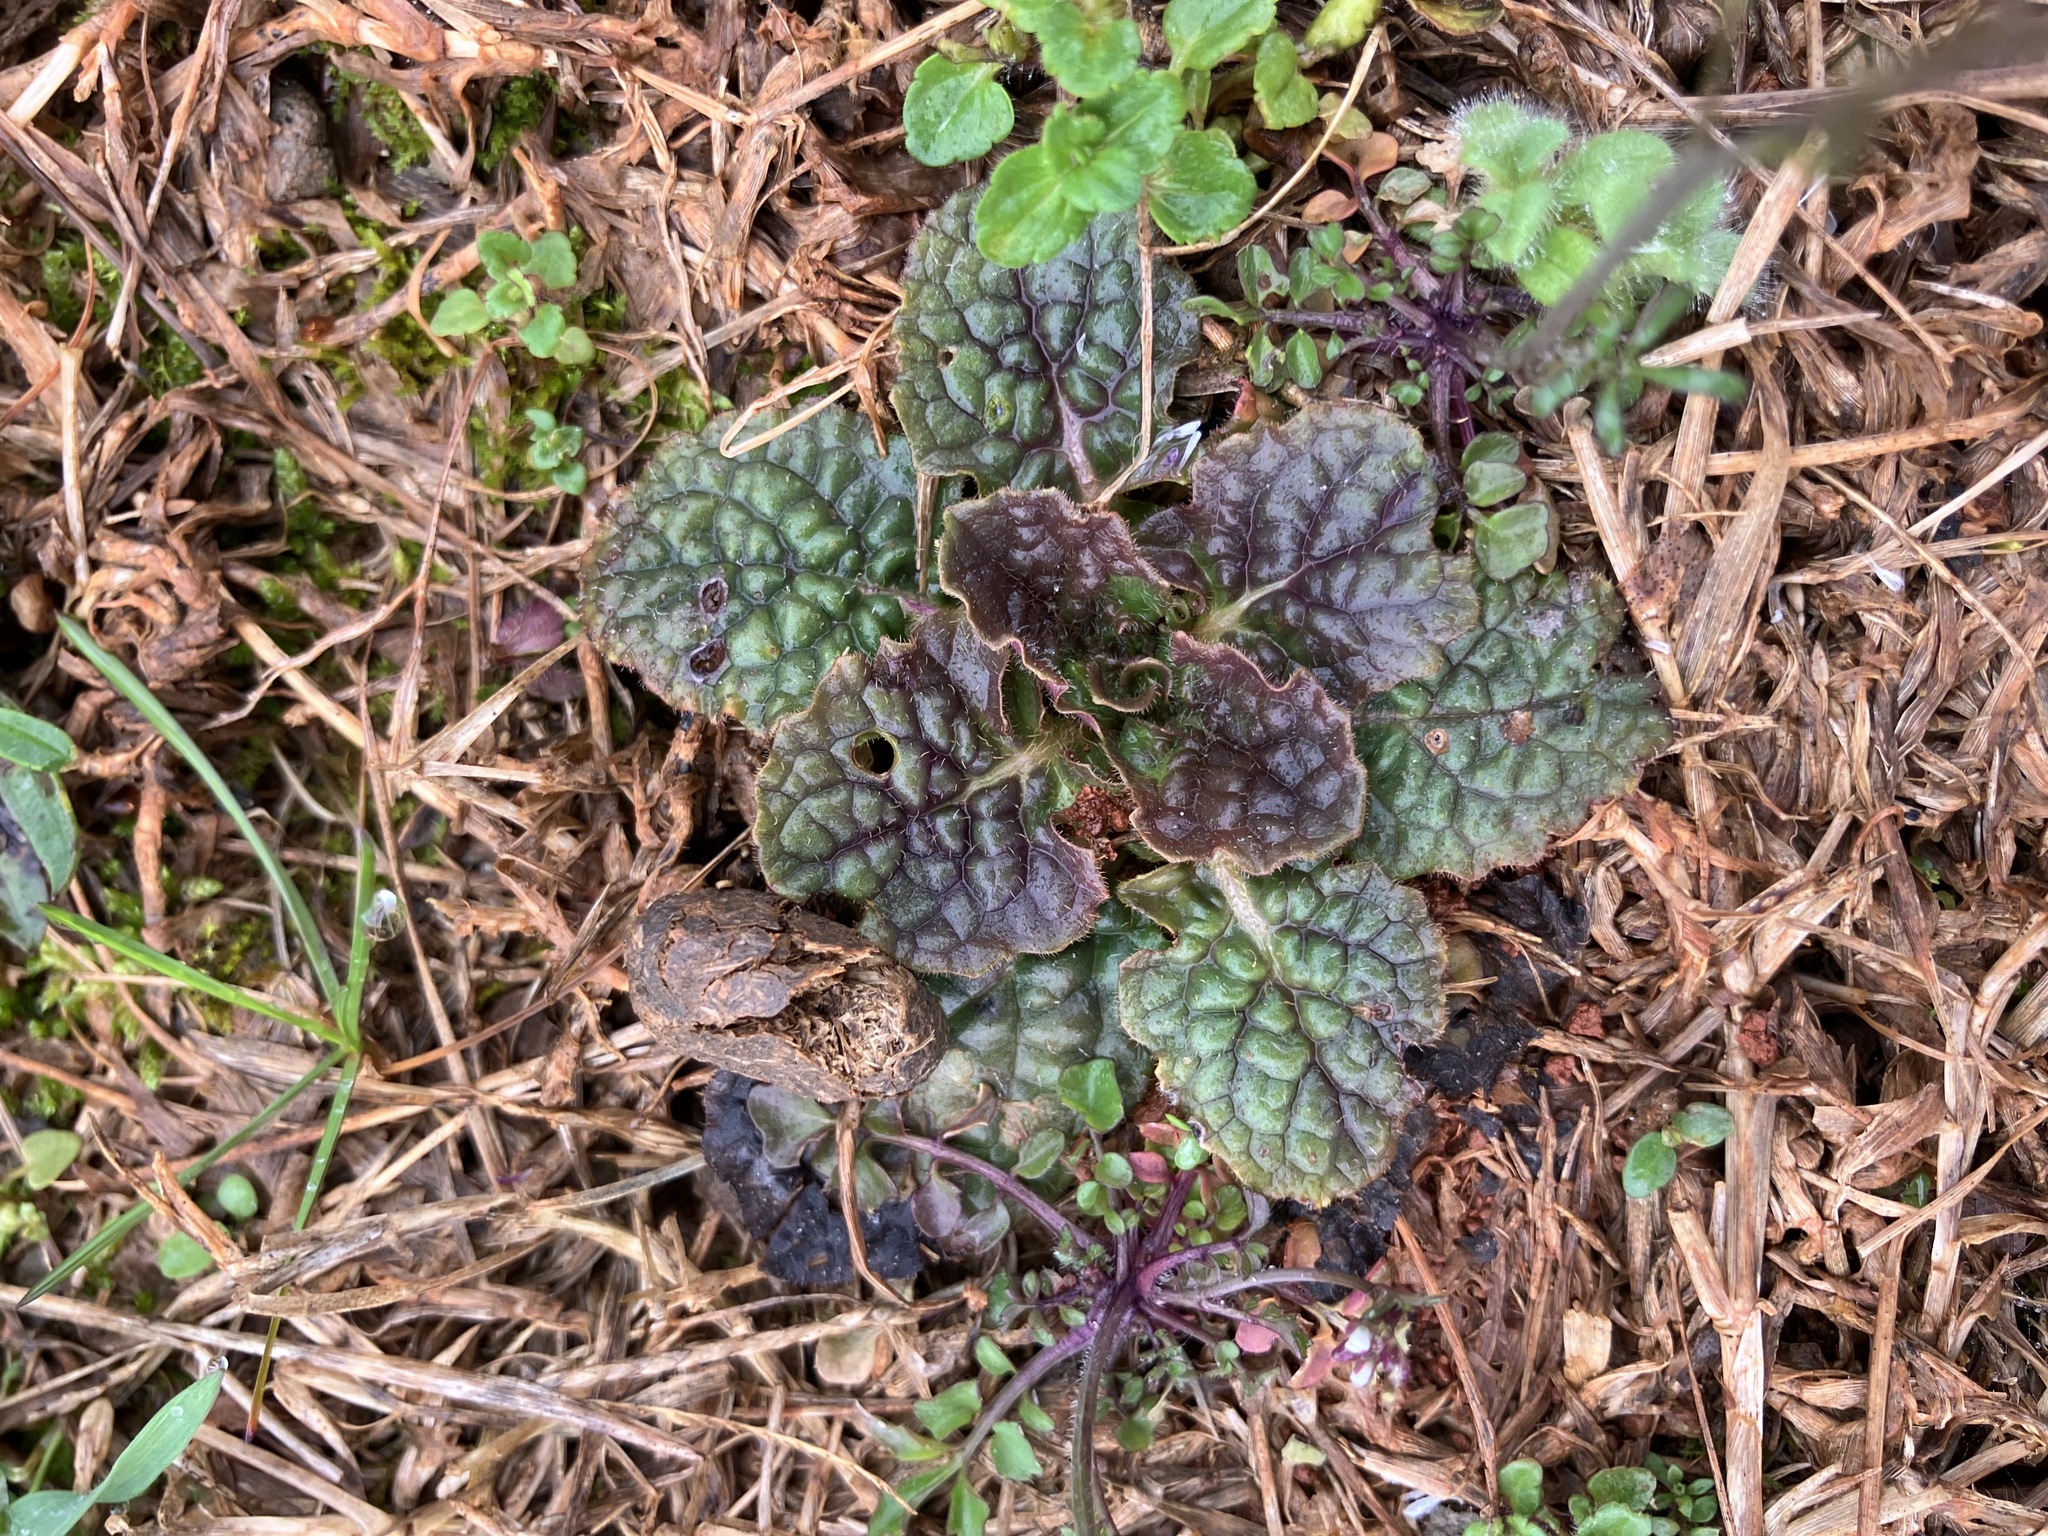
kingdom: Plantae
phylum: Tracheophyta
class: Magnoliopsida
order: Lamiales
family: Lamiaceae
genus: Salvia
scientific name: Salvia lyrata
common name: Cancerweed
